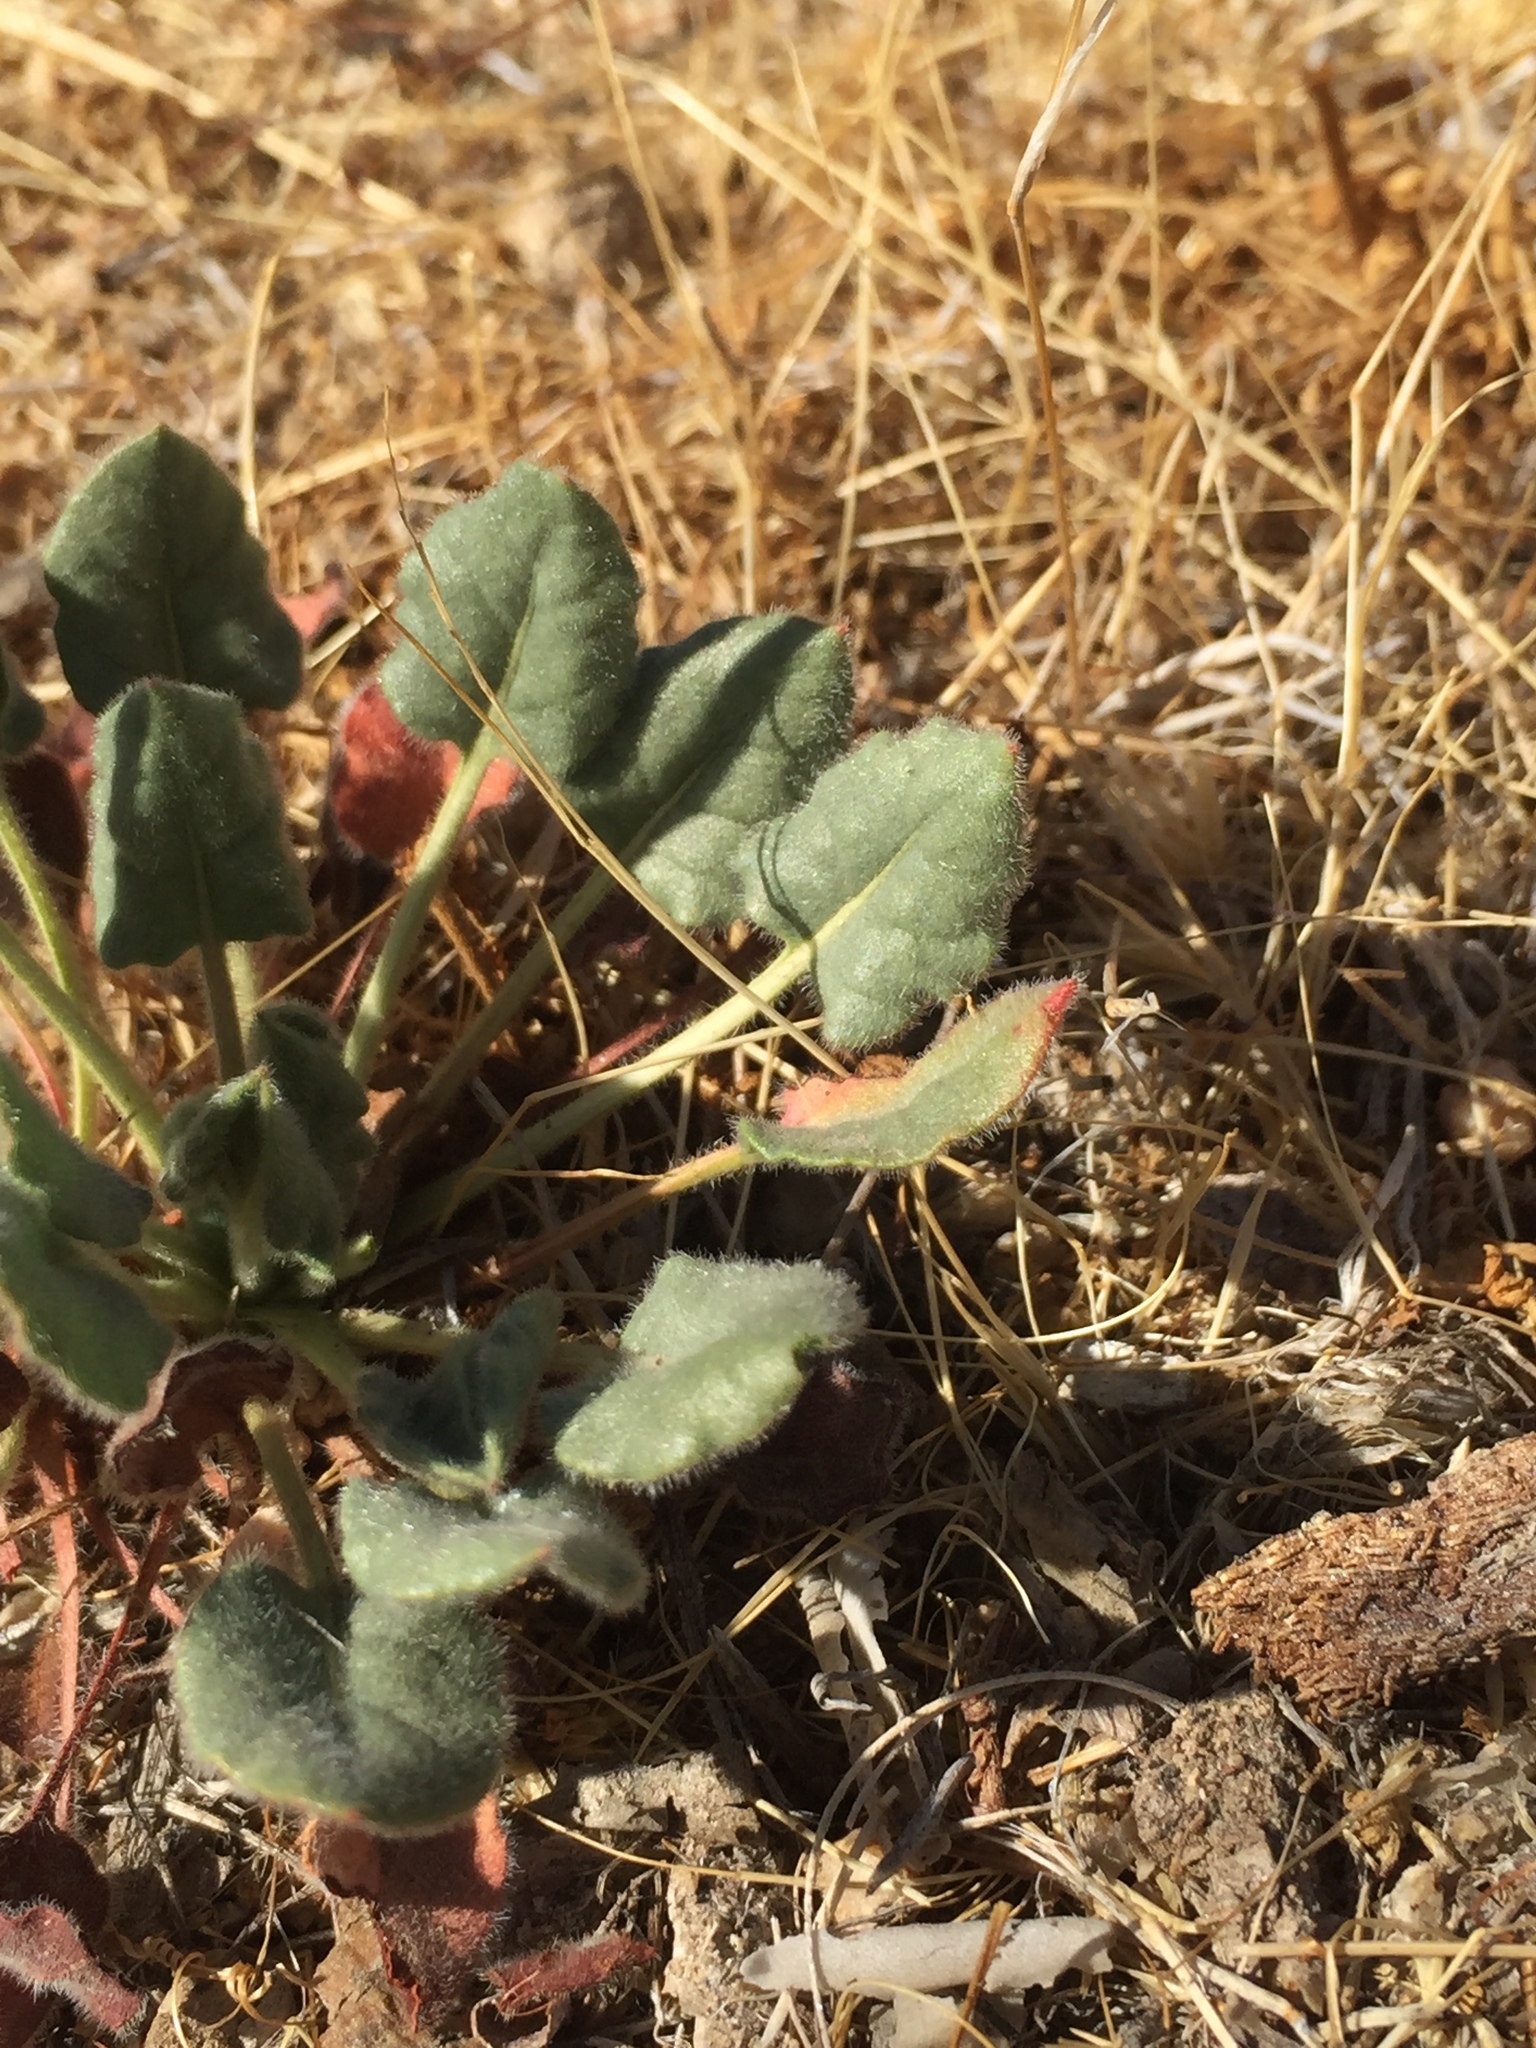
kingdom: Plantae
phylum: Tracheophyta
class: Magnoliopsida
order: Caryophyllales
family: Polygonaceae
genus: Eriogonum
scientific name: Eriogonum inflatum
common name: Desert trumpet
